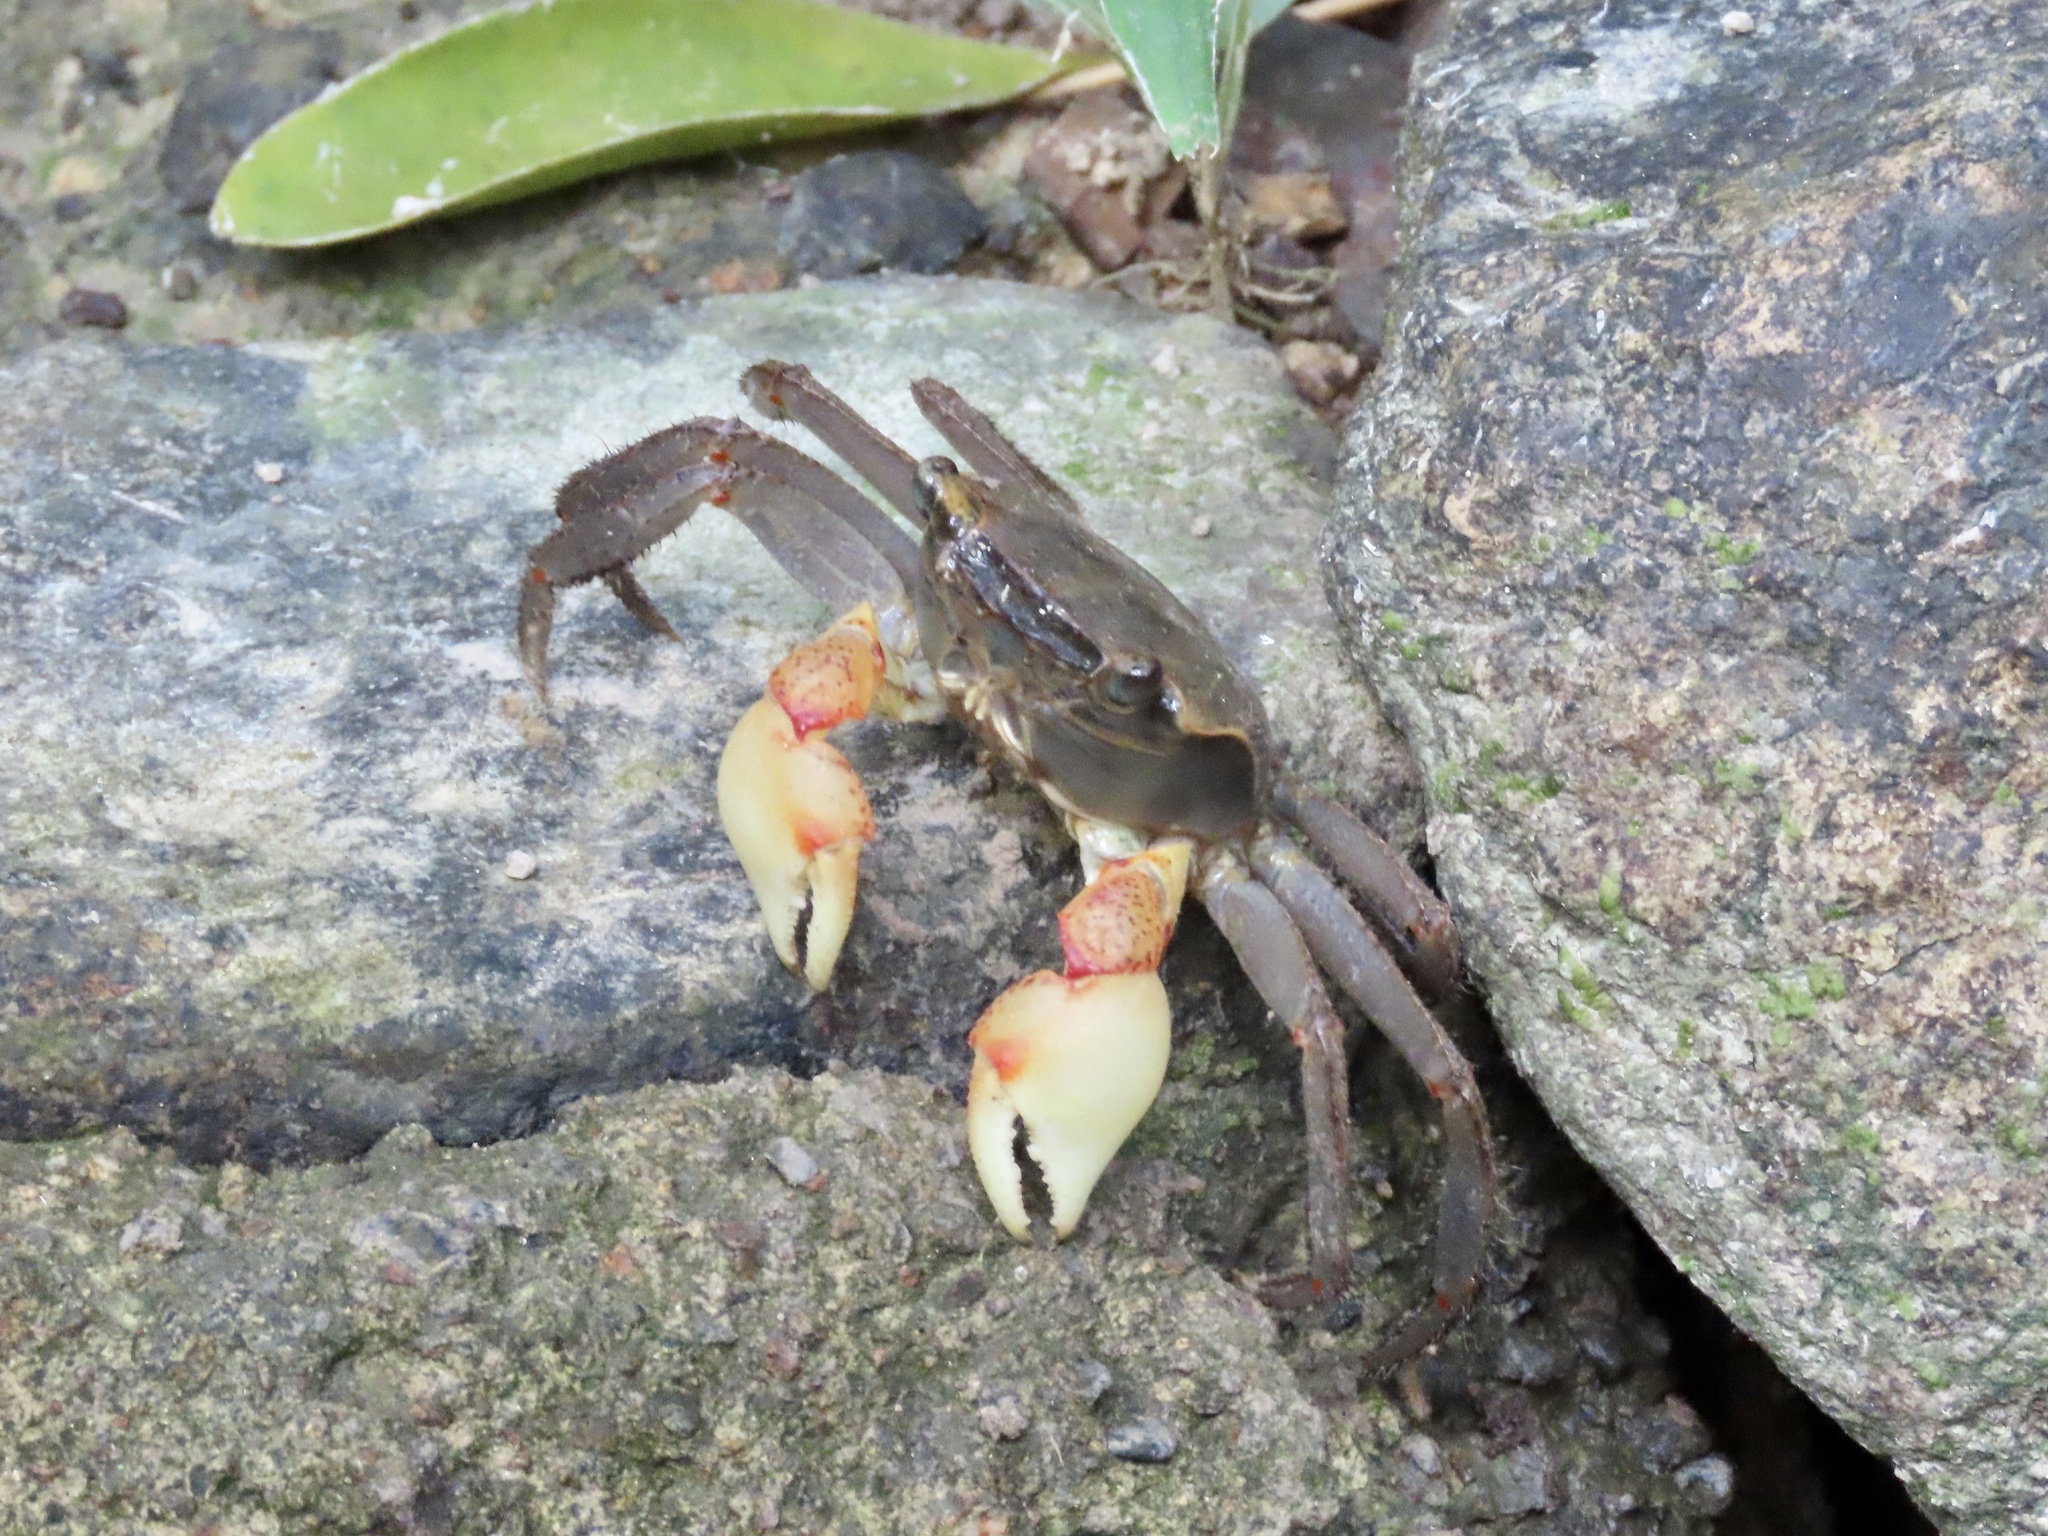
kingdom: Animalia
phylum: Arthropoda
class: Malacostraca
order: Decapoda
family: Sesarmidae
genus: Chiromantes
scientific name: Chiromantes haematocheir
